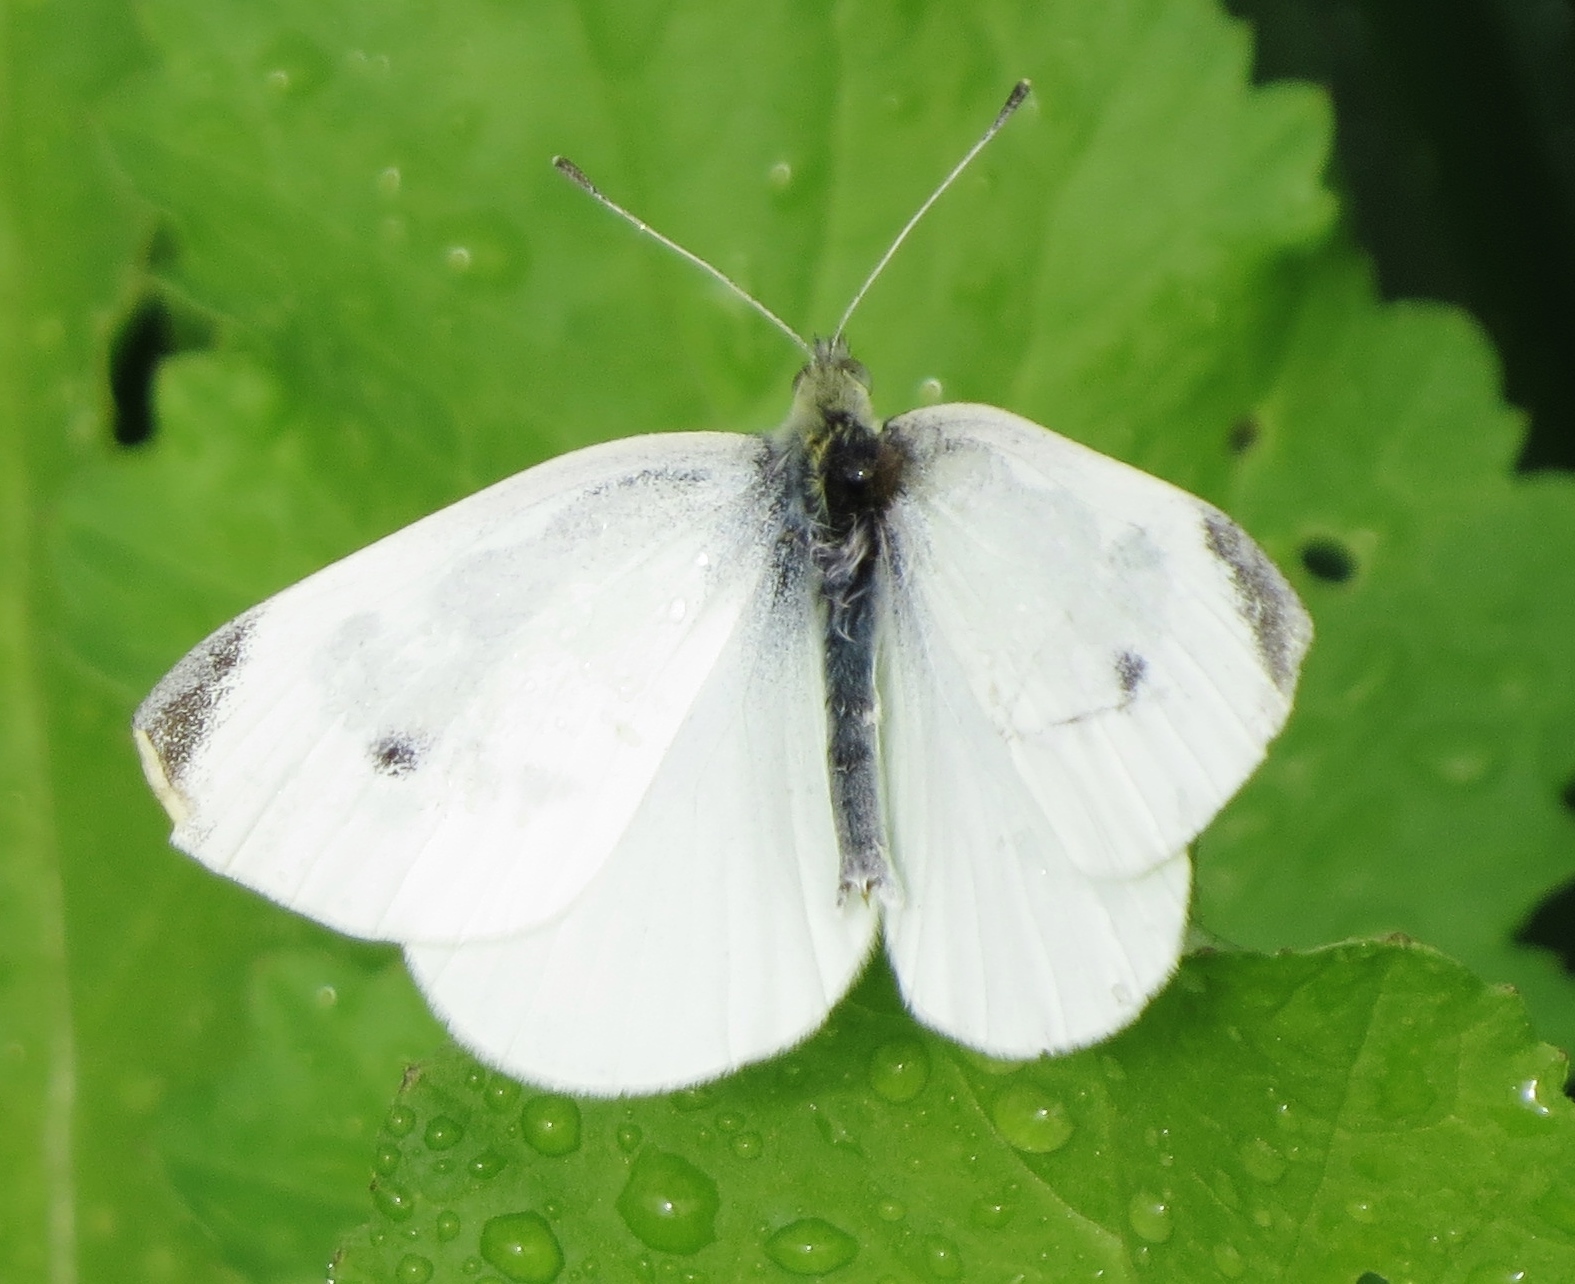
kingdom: Animalia
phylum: Arthropoda
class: Insecta
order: Lepidoptera
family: Pieridae
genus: Pieris
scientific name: Pieris rapae
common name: Small white
